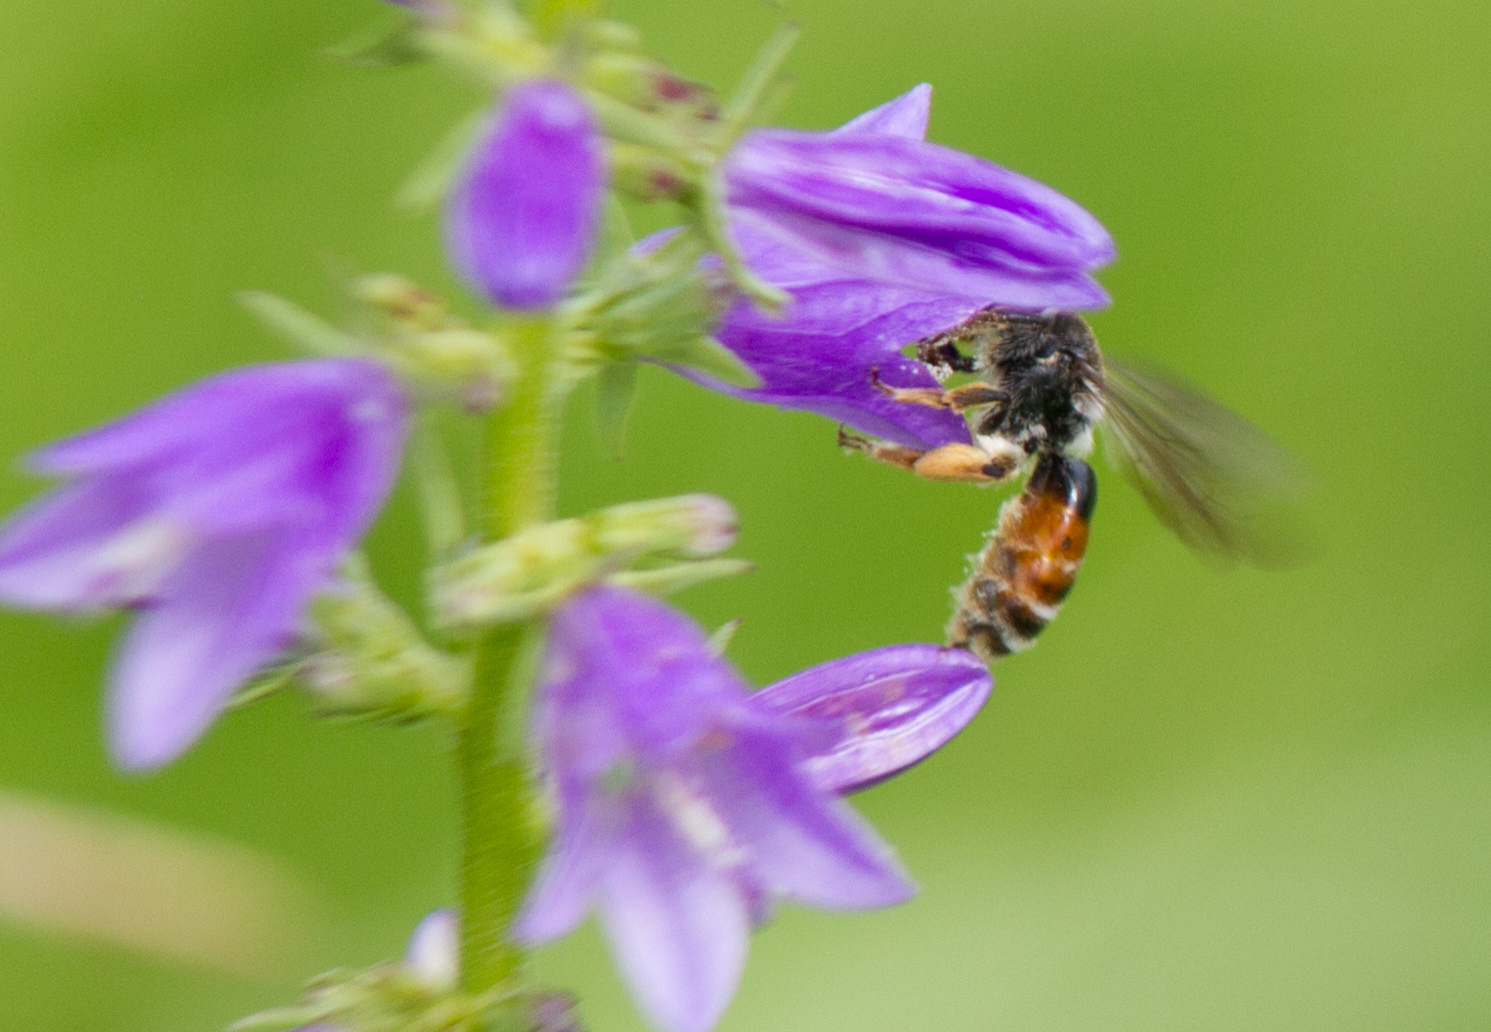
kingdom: Animalia
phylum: Arthropoda
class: Insecta
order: Hymenoptera
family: Andrenidae
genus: Andrena
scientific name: Andrena rufizona
